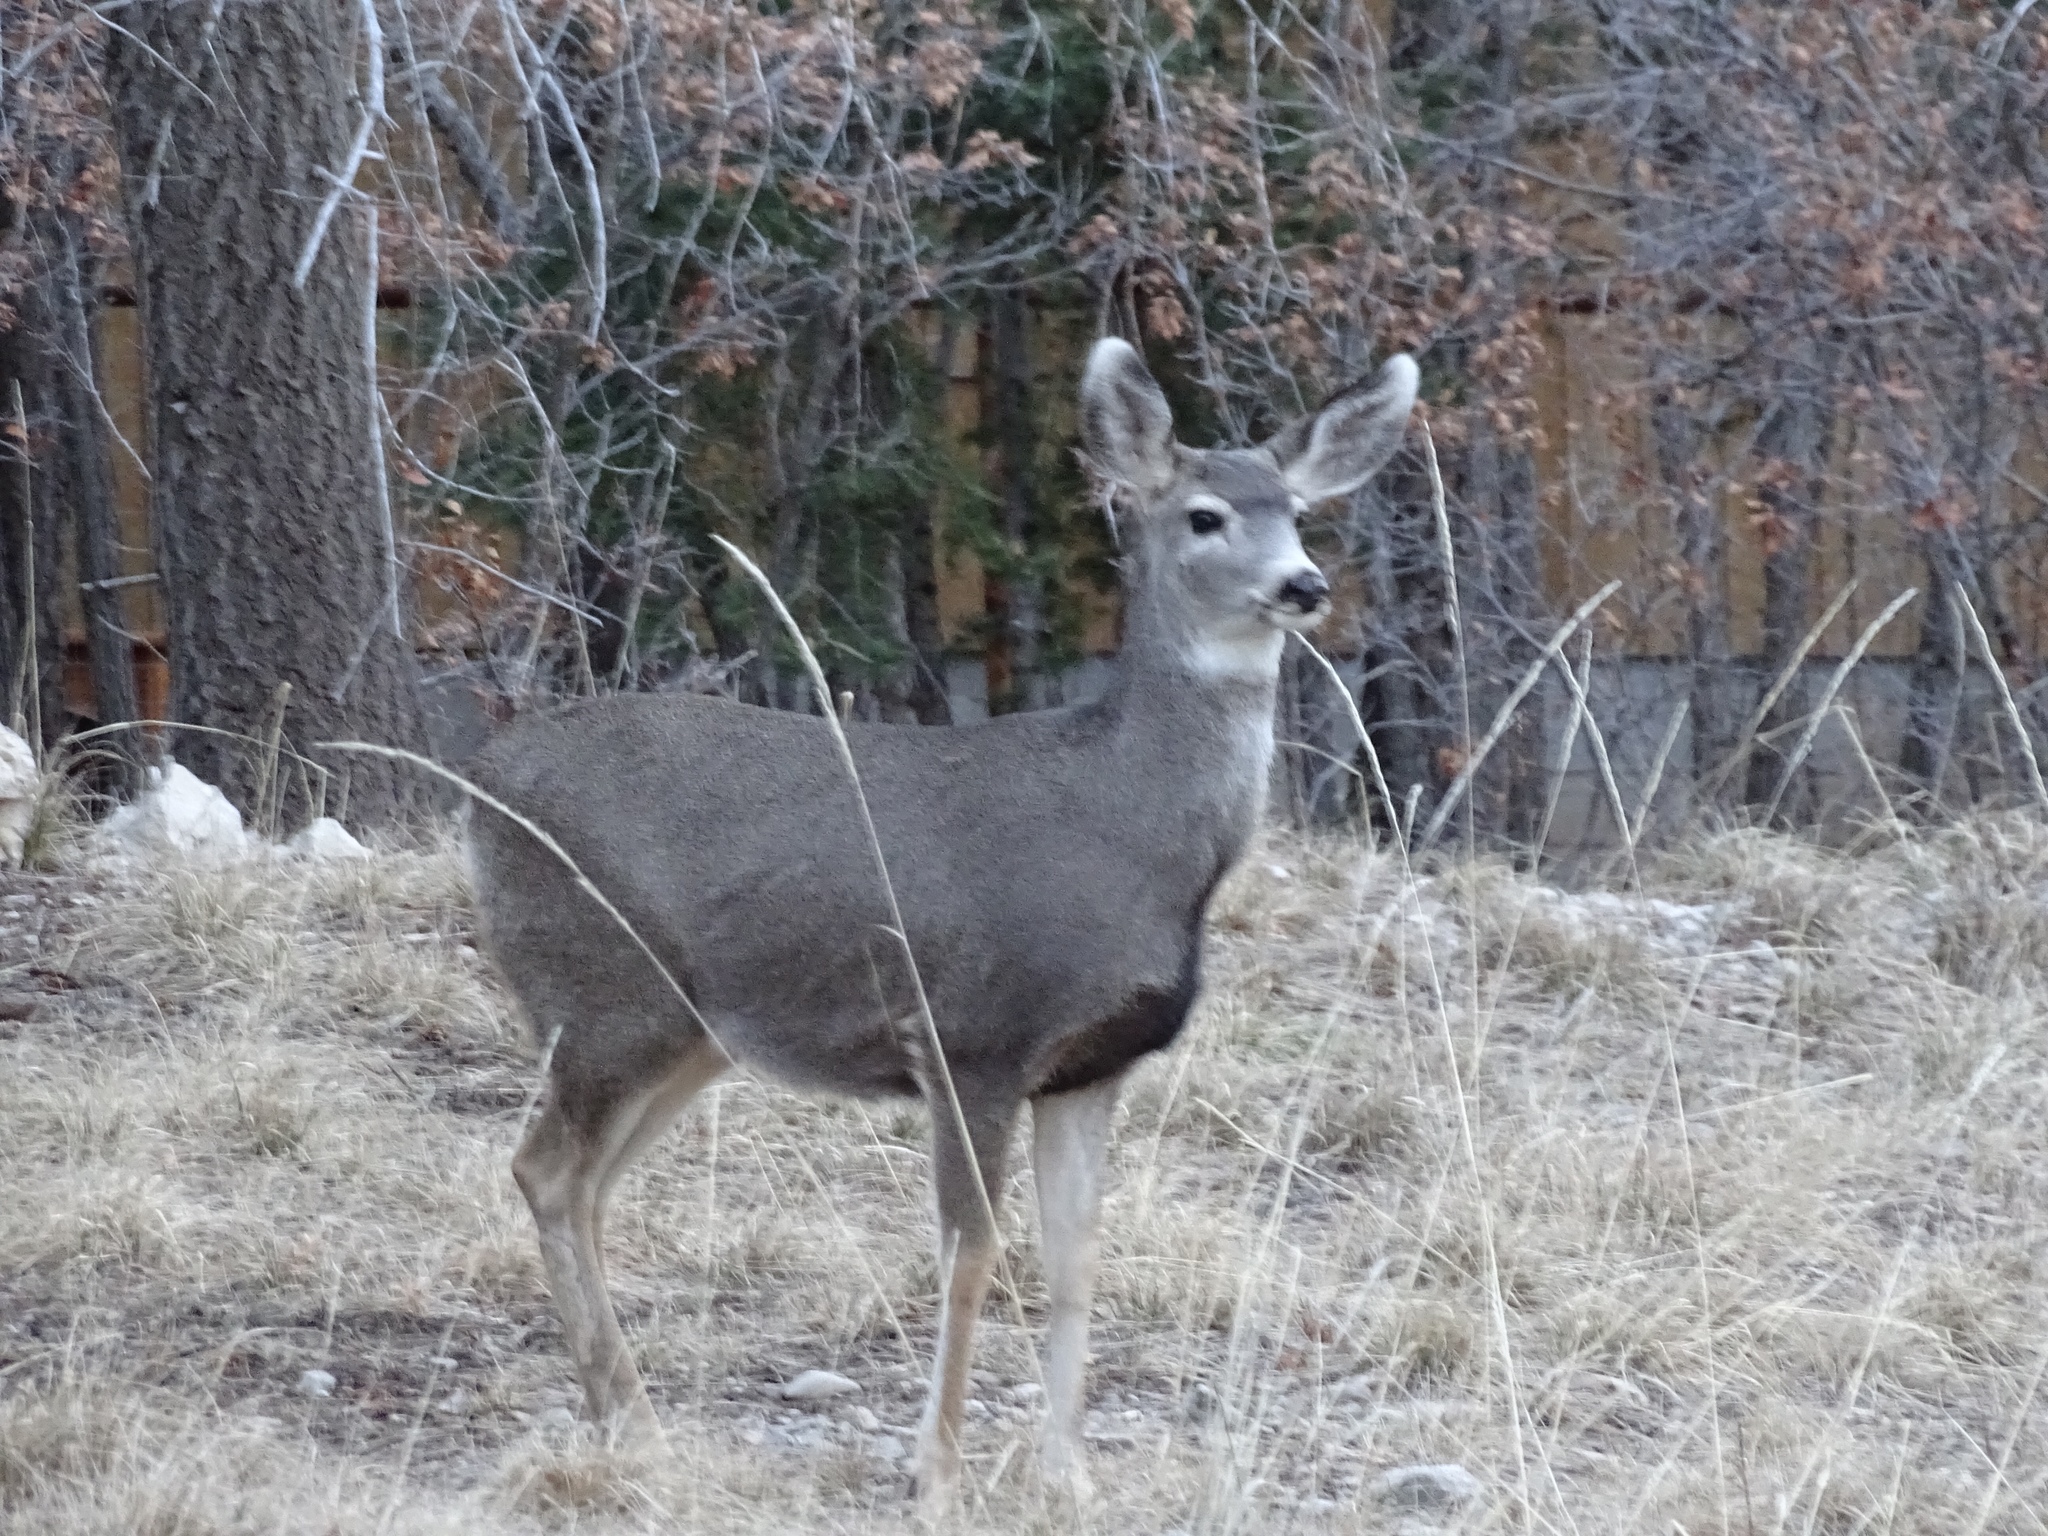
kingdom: Animalia
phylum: Chordata
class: Mammalia
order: Artiodactyla
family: Cervidae
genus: Odocoileus
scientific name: Odocoileus hemionus
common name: Mule deer
